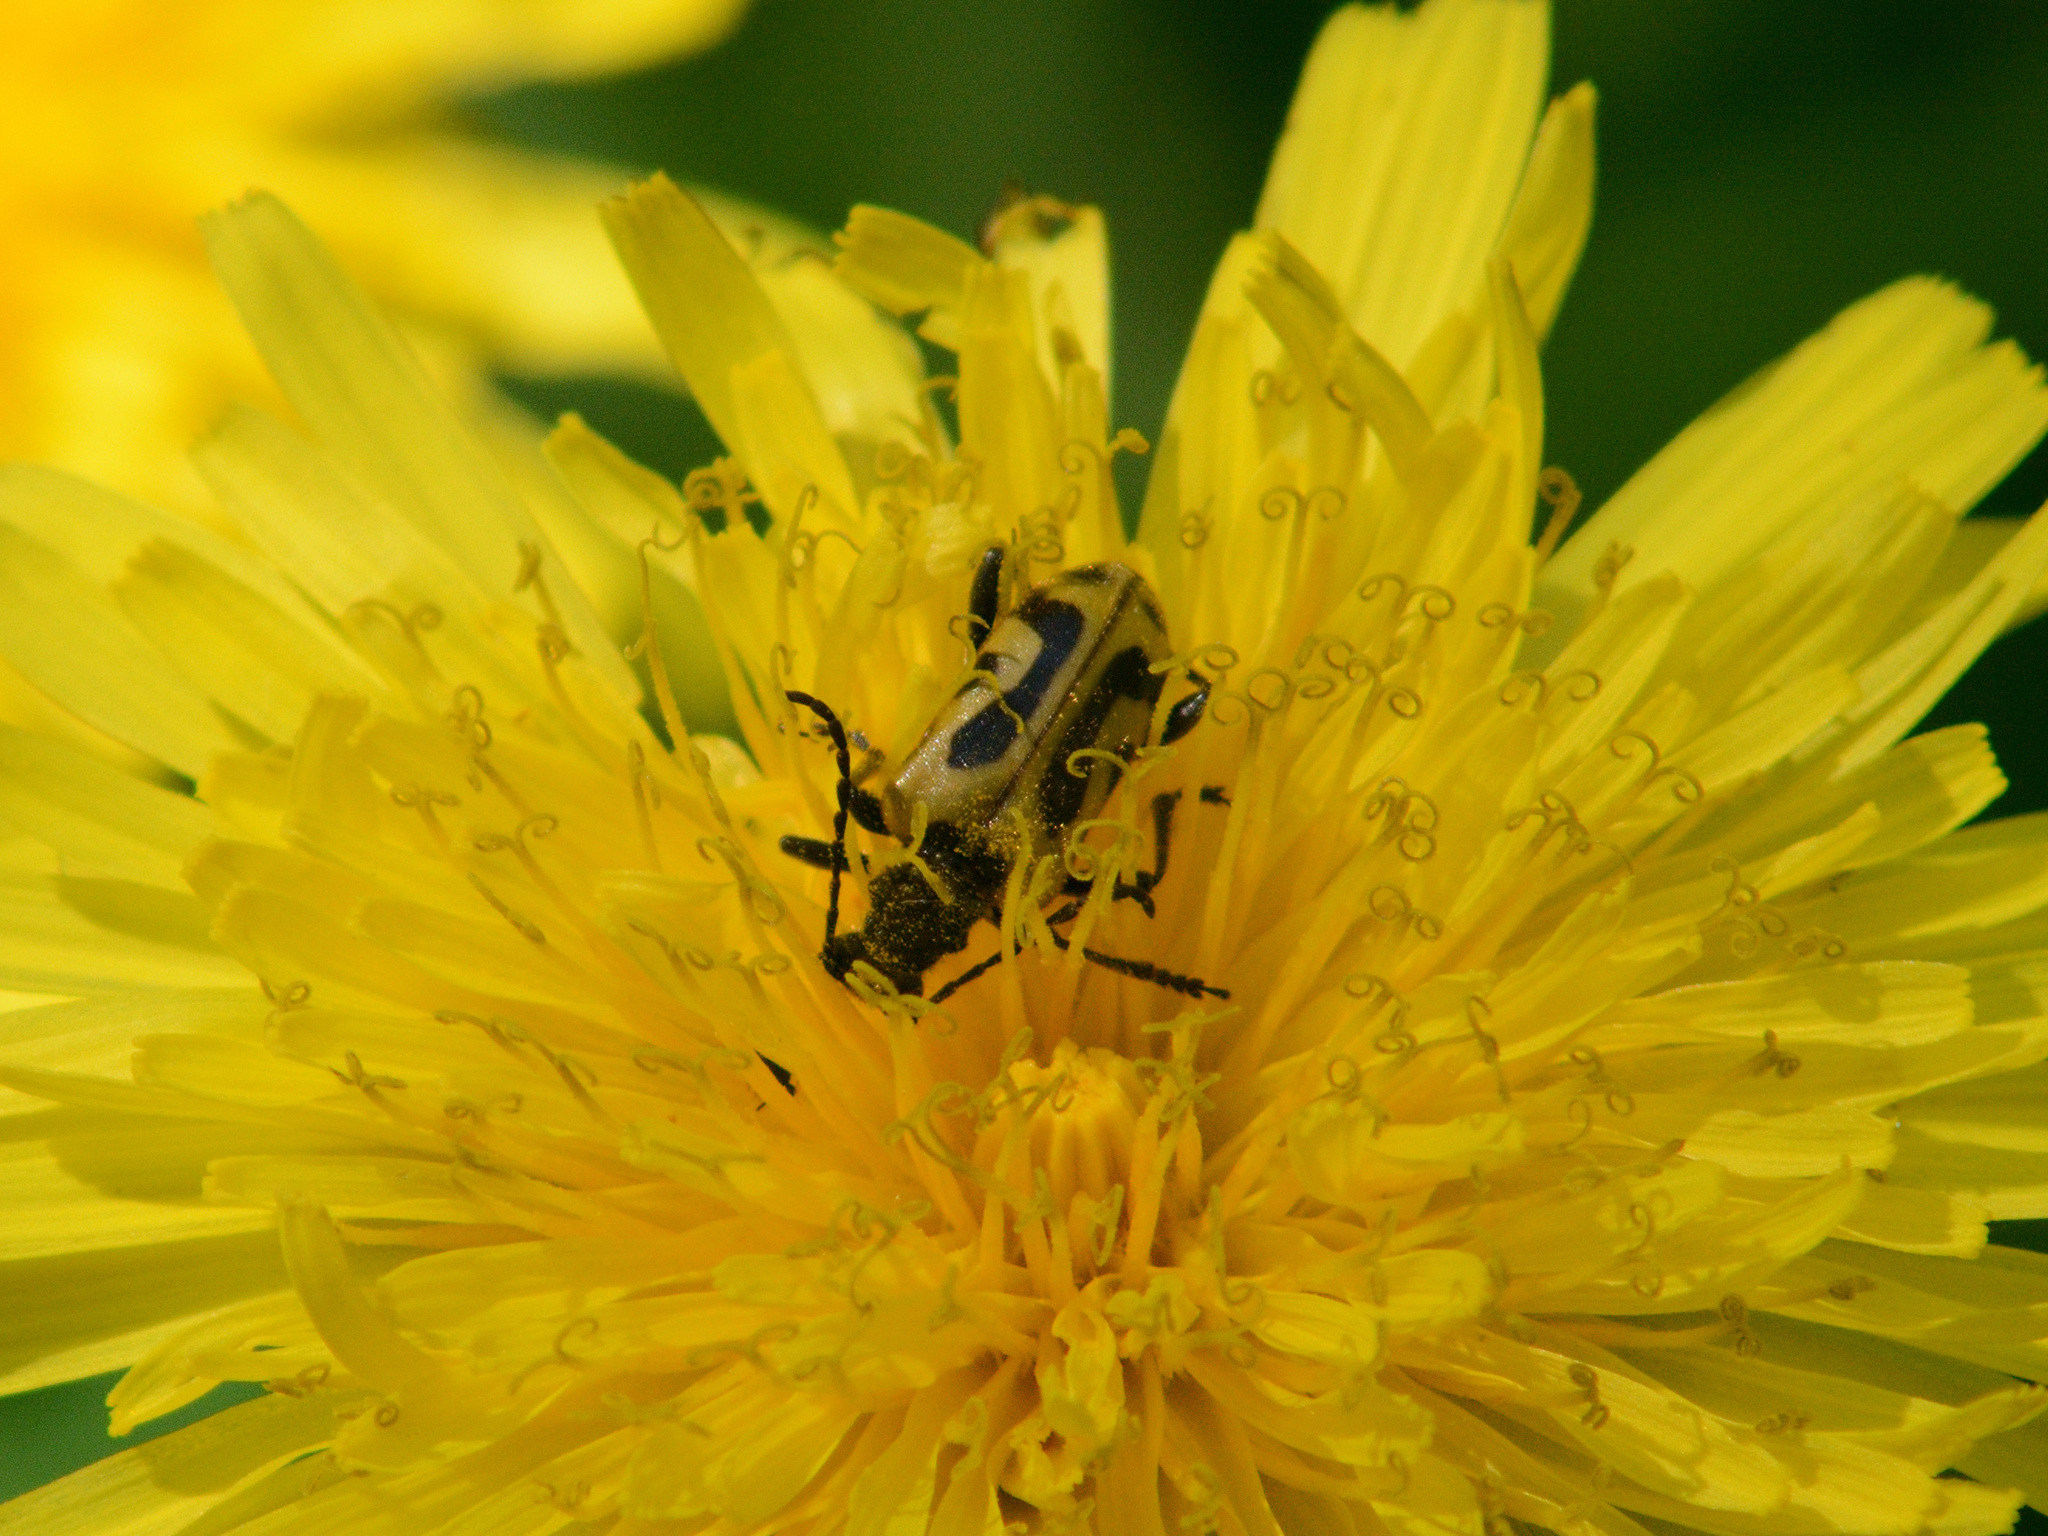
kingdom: Animalia
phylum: Arthropoda
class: Insecta
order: Coleoptera
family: Cerambycidae
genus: Brachyta
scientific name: Brachyta interrogationis
